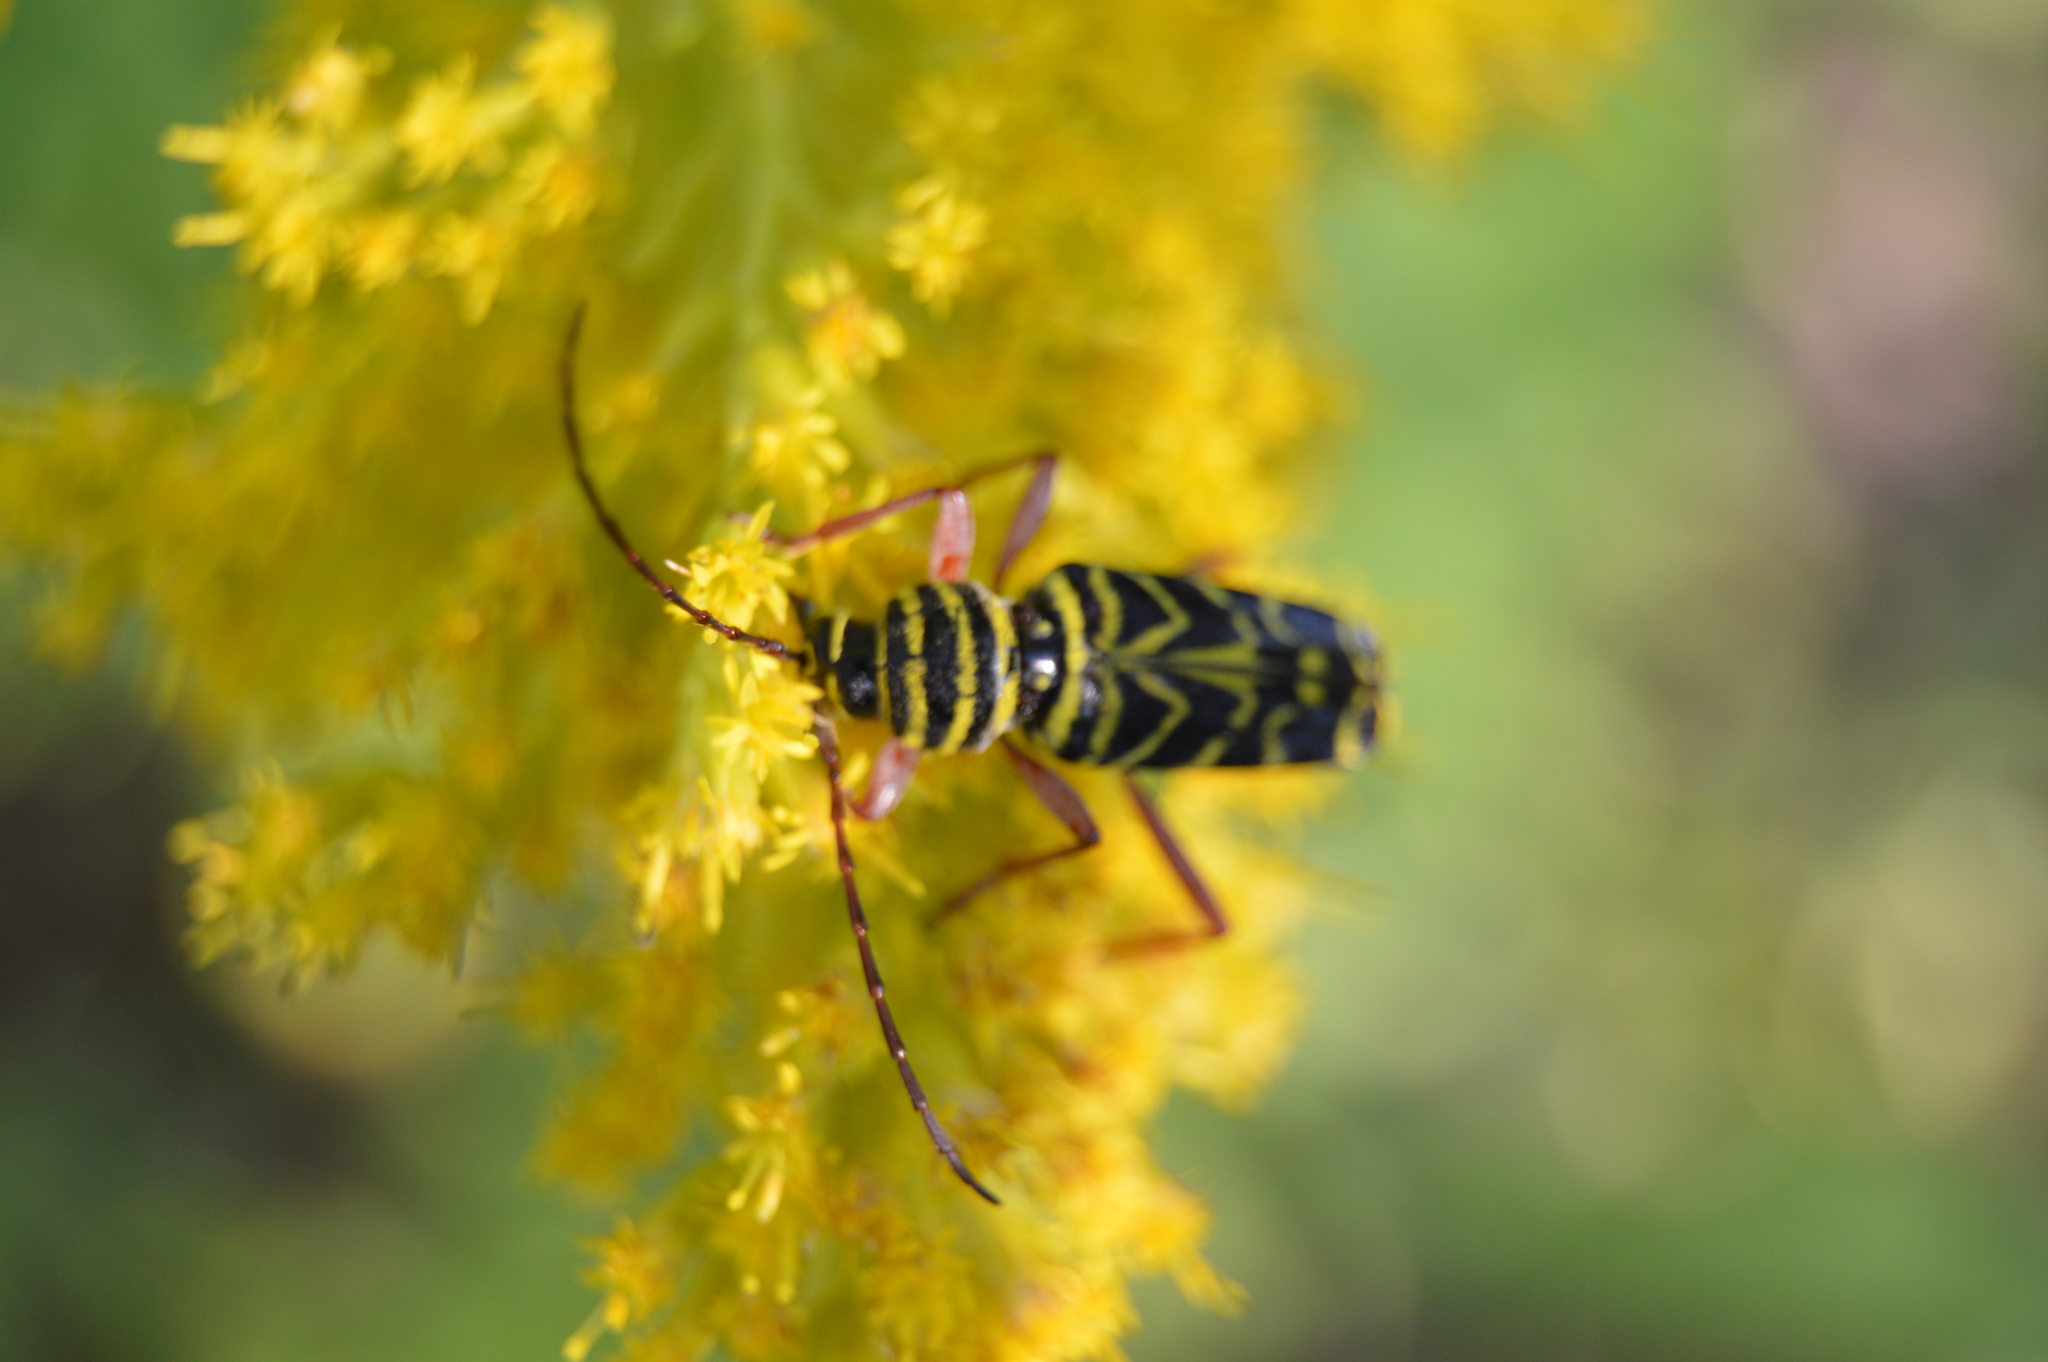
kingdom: Animalia
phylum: Arthropoda
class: Insecta
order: Coleoptera
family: Cerambycidae
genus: Megacyllene
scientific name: Megacyllene robiniae
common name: Locust borer
